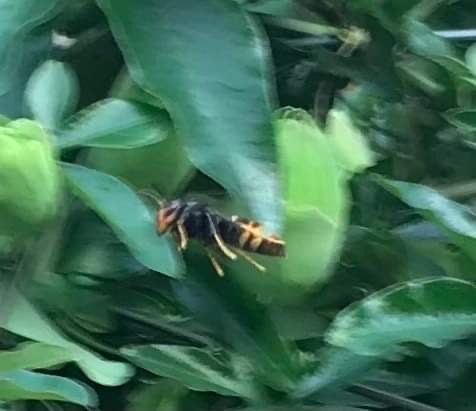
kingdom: Animalia
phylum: Arthropoda
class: Insecta
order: Hymenoptera
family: Vespidae
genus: Vespa
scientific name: Vespa velutina
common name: Asian hornet
